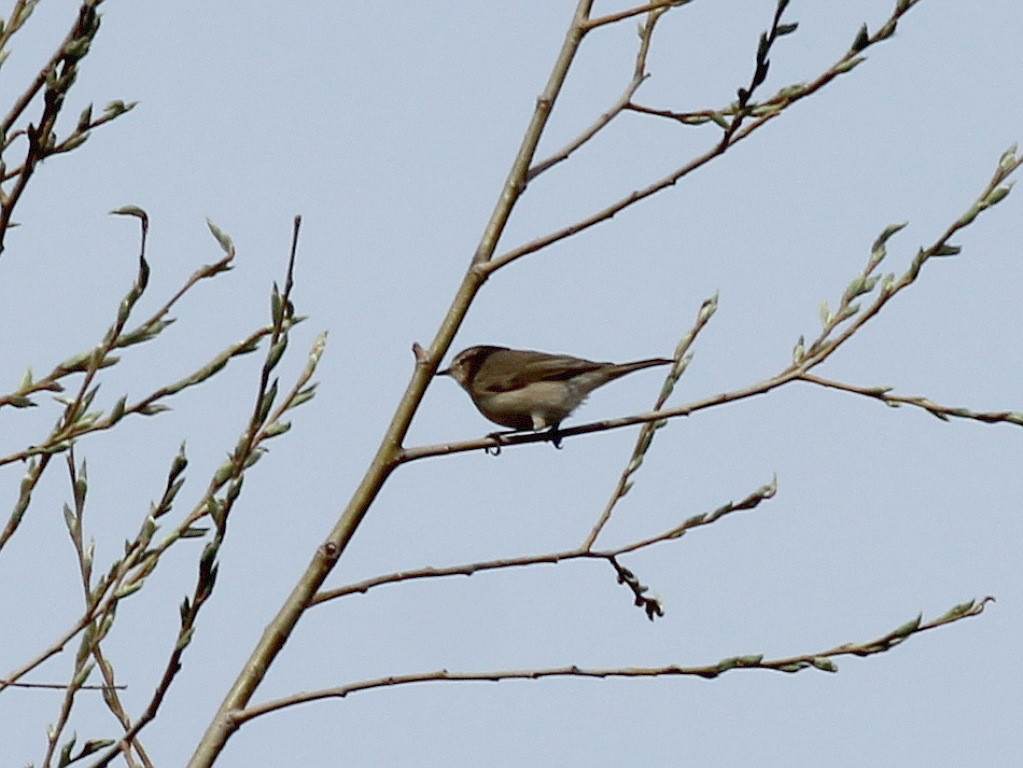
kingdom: Animalia
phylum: Chordata
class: Aves
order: Passeriformes
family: Phylloscopidae
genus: Phylloscopus
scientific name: Phylloscopus collybita
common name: Common chiffchaff
